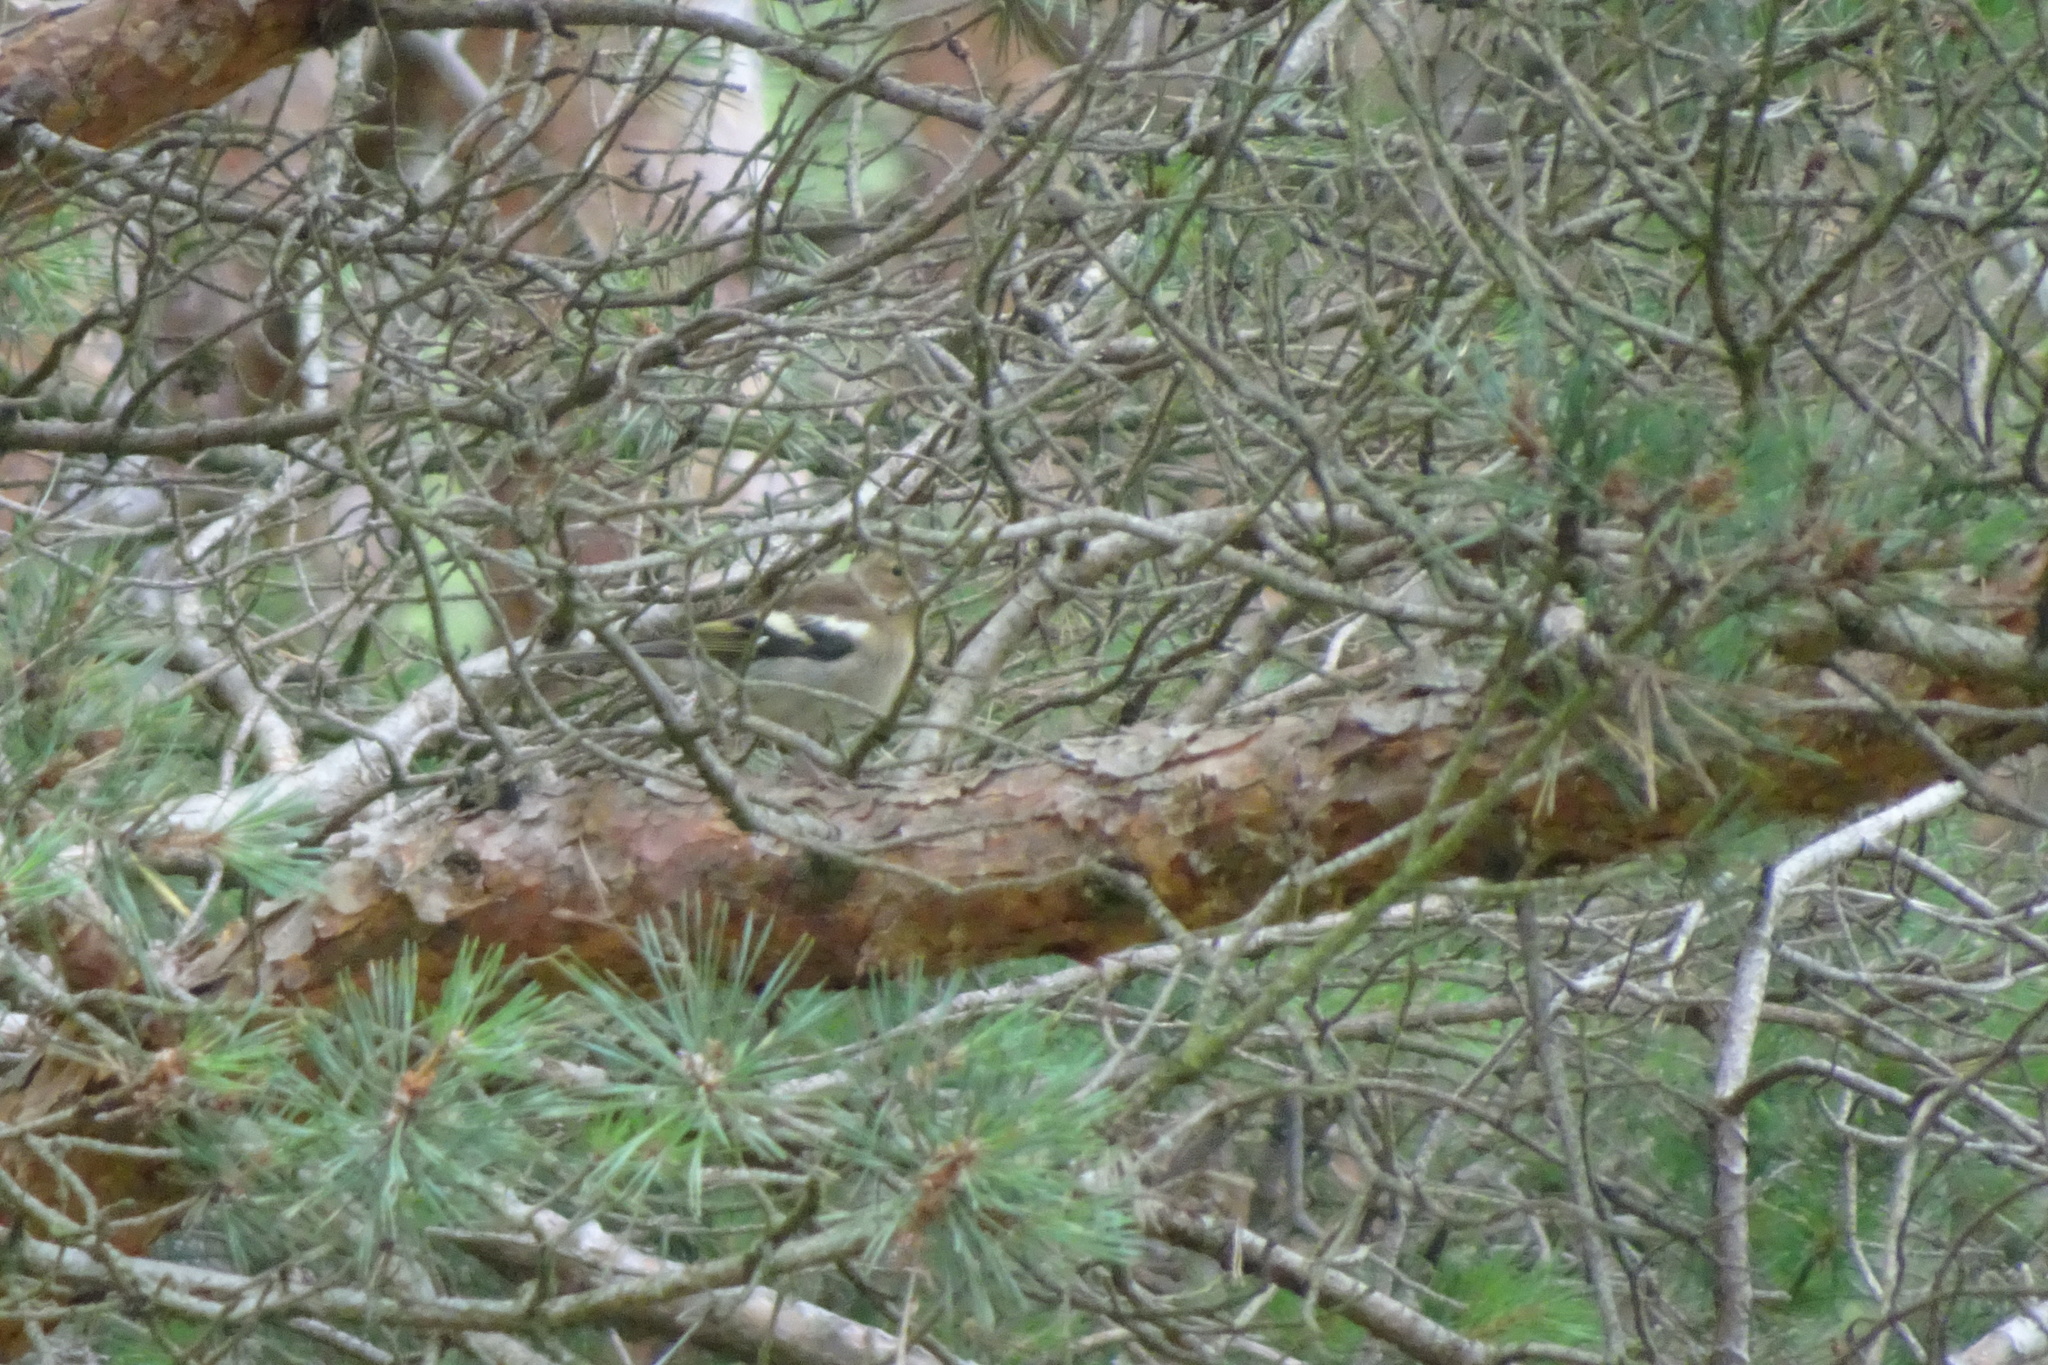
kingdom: Animalia
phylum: Chordata
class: Aves
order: Passeriformes
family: Fringillidae
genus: Fringilla
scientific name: Fringilla coelebs
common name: Common chaffinch
